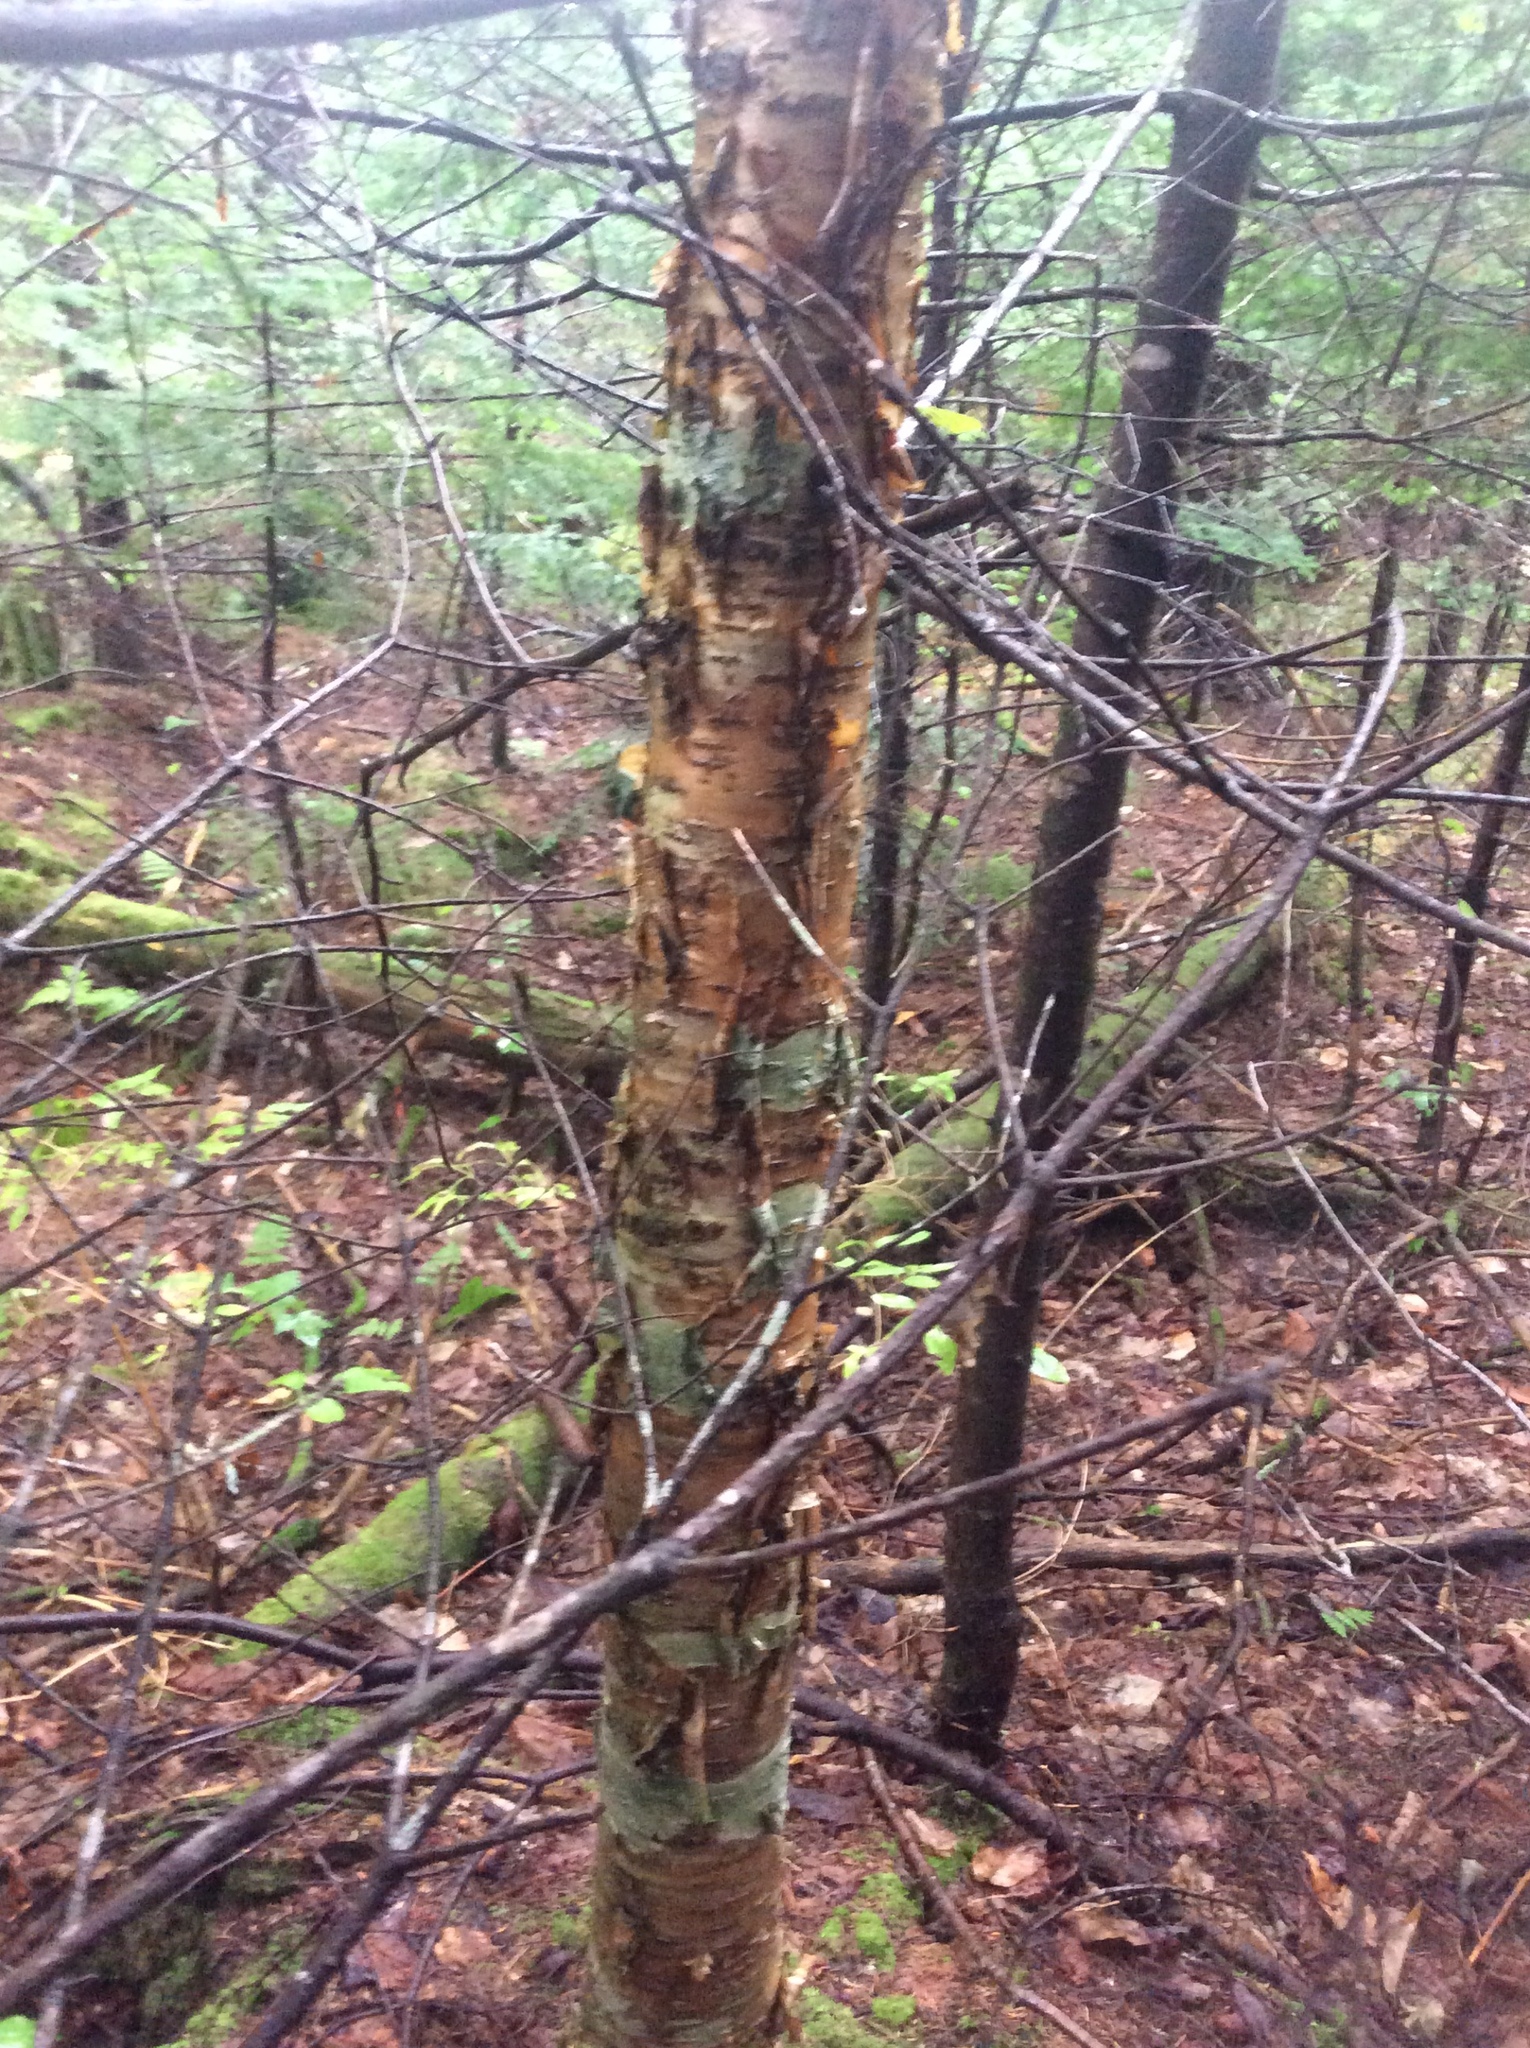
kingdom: Plantae
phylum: Tracheophyta
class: Magnoliopsida
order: Fagales
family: Betulaceae
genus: Betula
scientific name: Betula alleghaniensis
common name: Yellow birch
